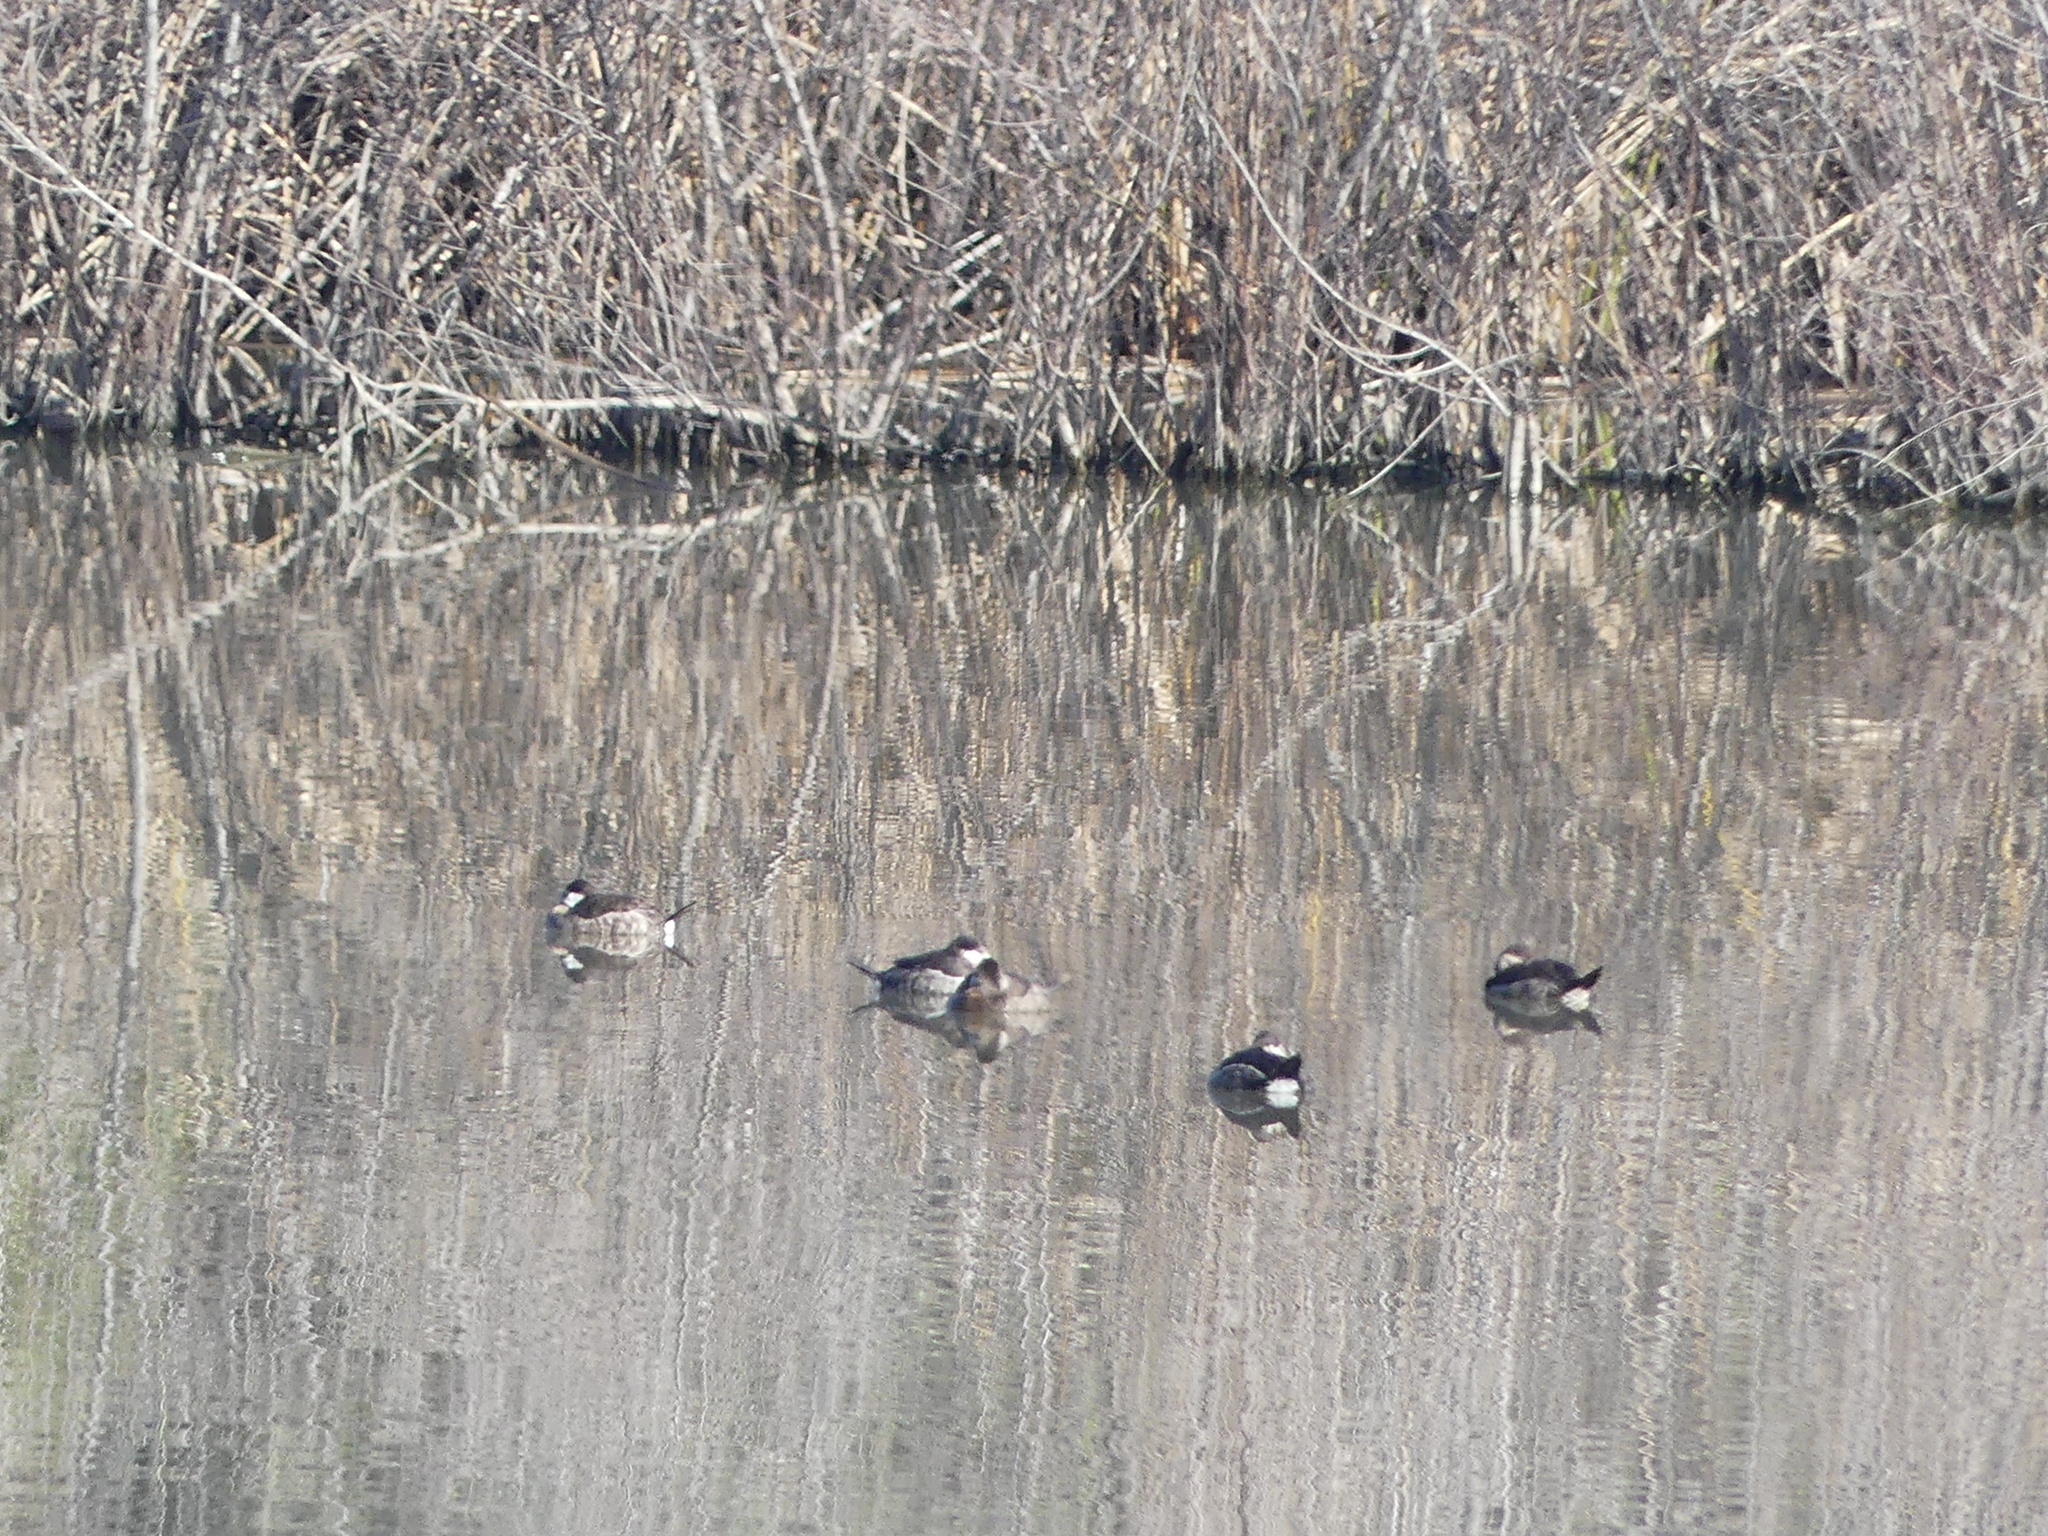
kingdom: Animalia
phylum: Chordata
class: Aves
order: Anseriformes
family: Anatidae
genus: Oxyura
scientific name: Oxyura jamaicensis
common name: Ruddy duck
